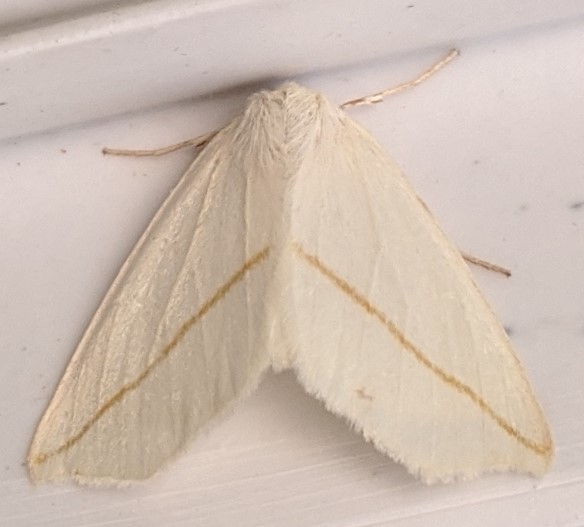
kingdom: Animalia
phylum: Arthropoda
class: Insecta
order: Lepidoptera
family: Geometridae
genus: Tetracis
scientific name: Tetracis cachexiata
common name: White slant-line
